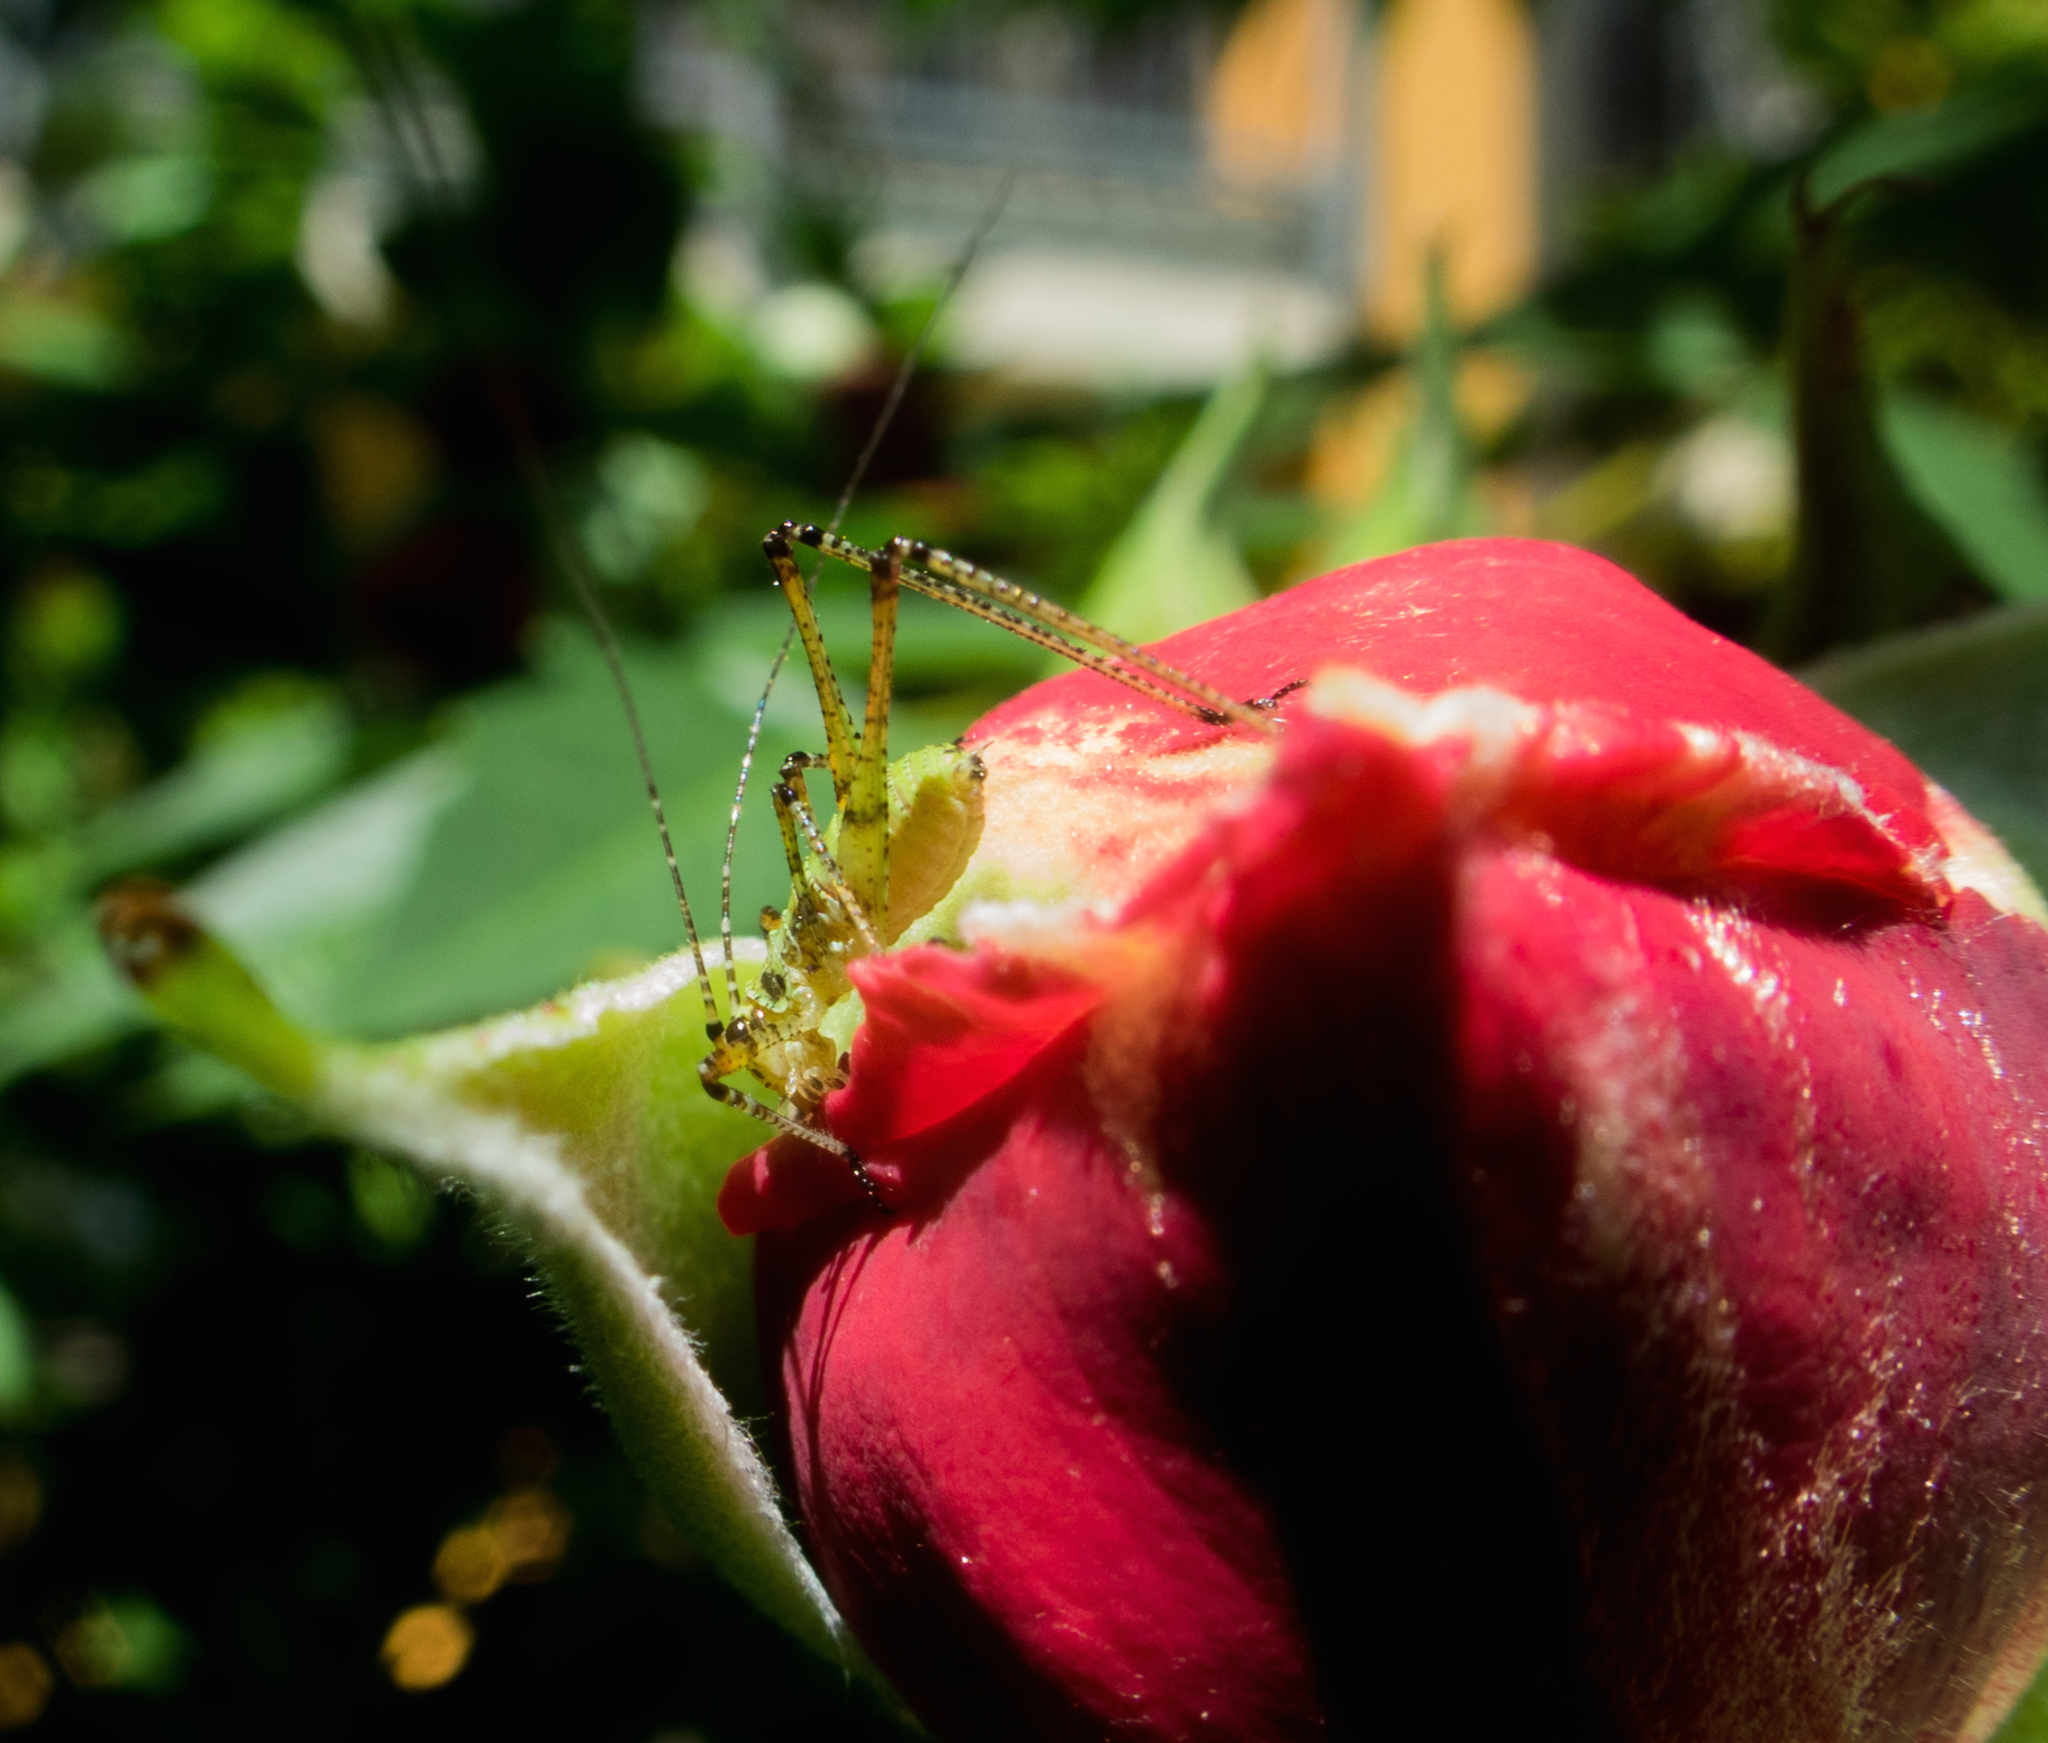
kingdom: Animalia
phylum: Arthropoda
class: Insecta
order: Orthoptera
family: Tettigoniidae
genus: Phaneroptera
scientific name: Phaneroptera nana
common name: Southern sickle bush-cricket
